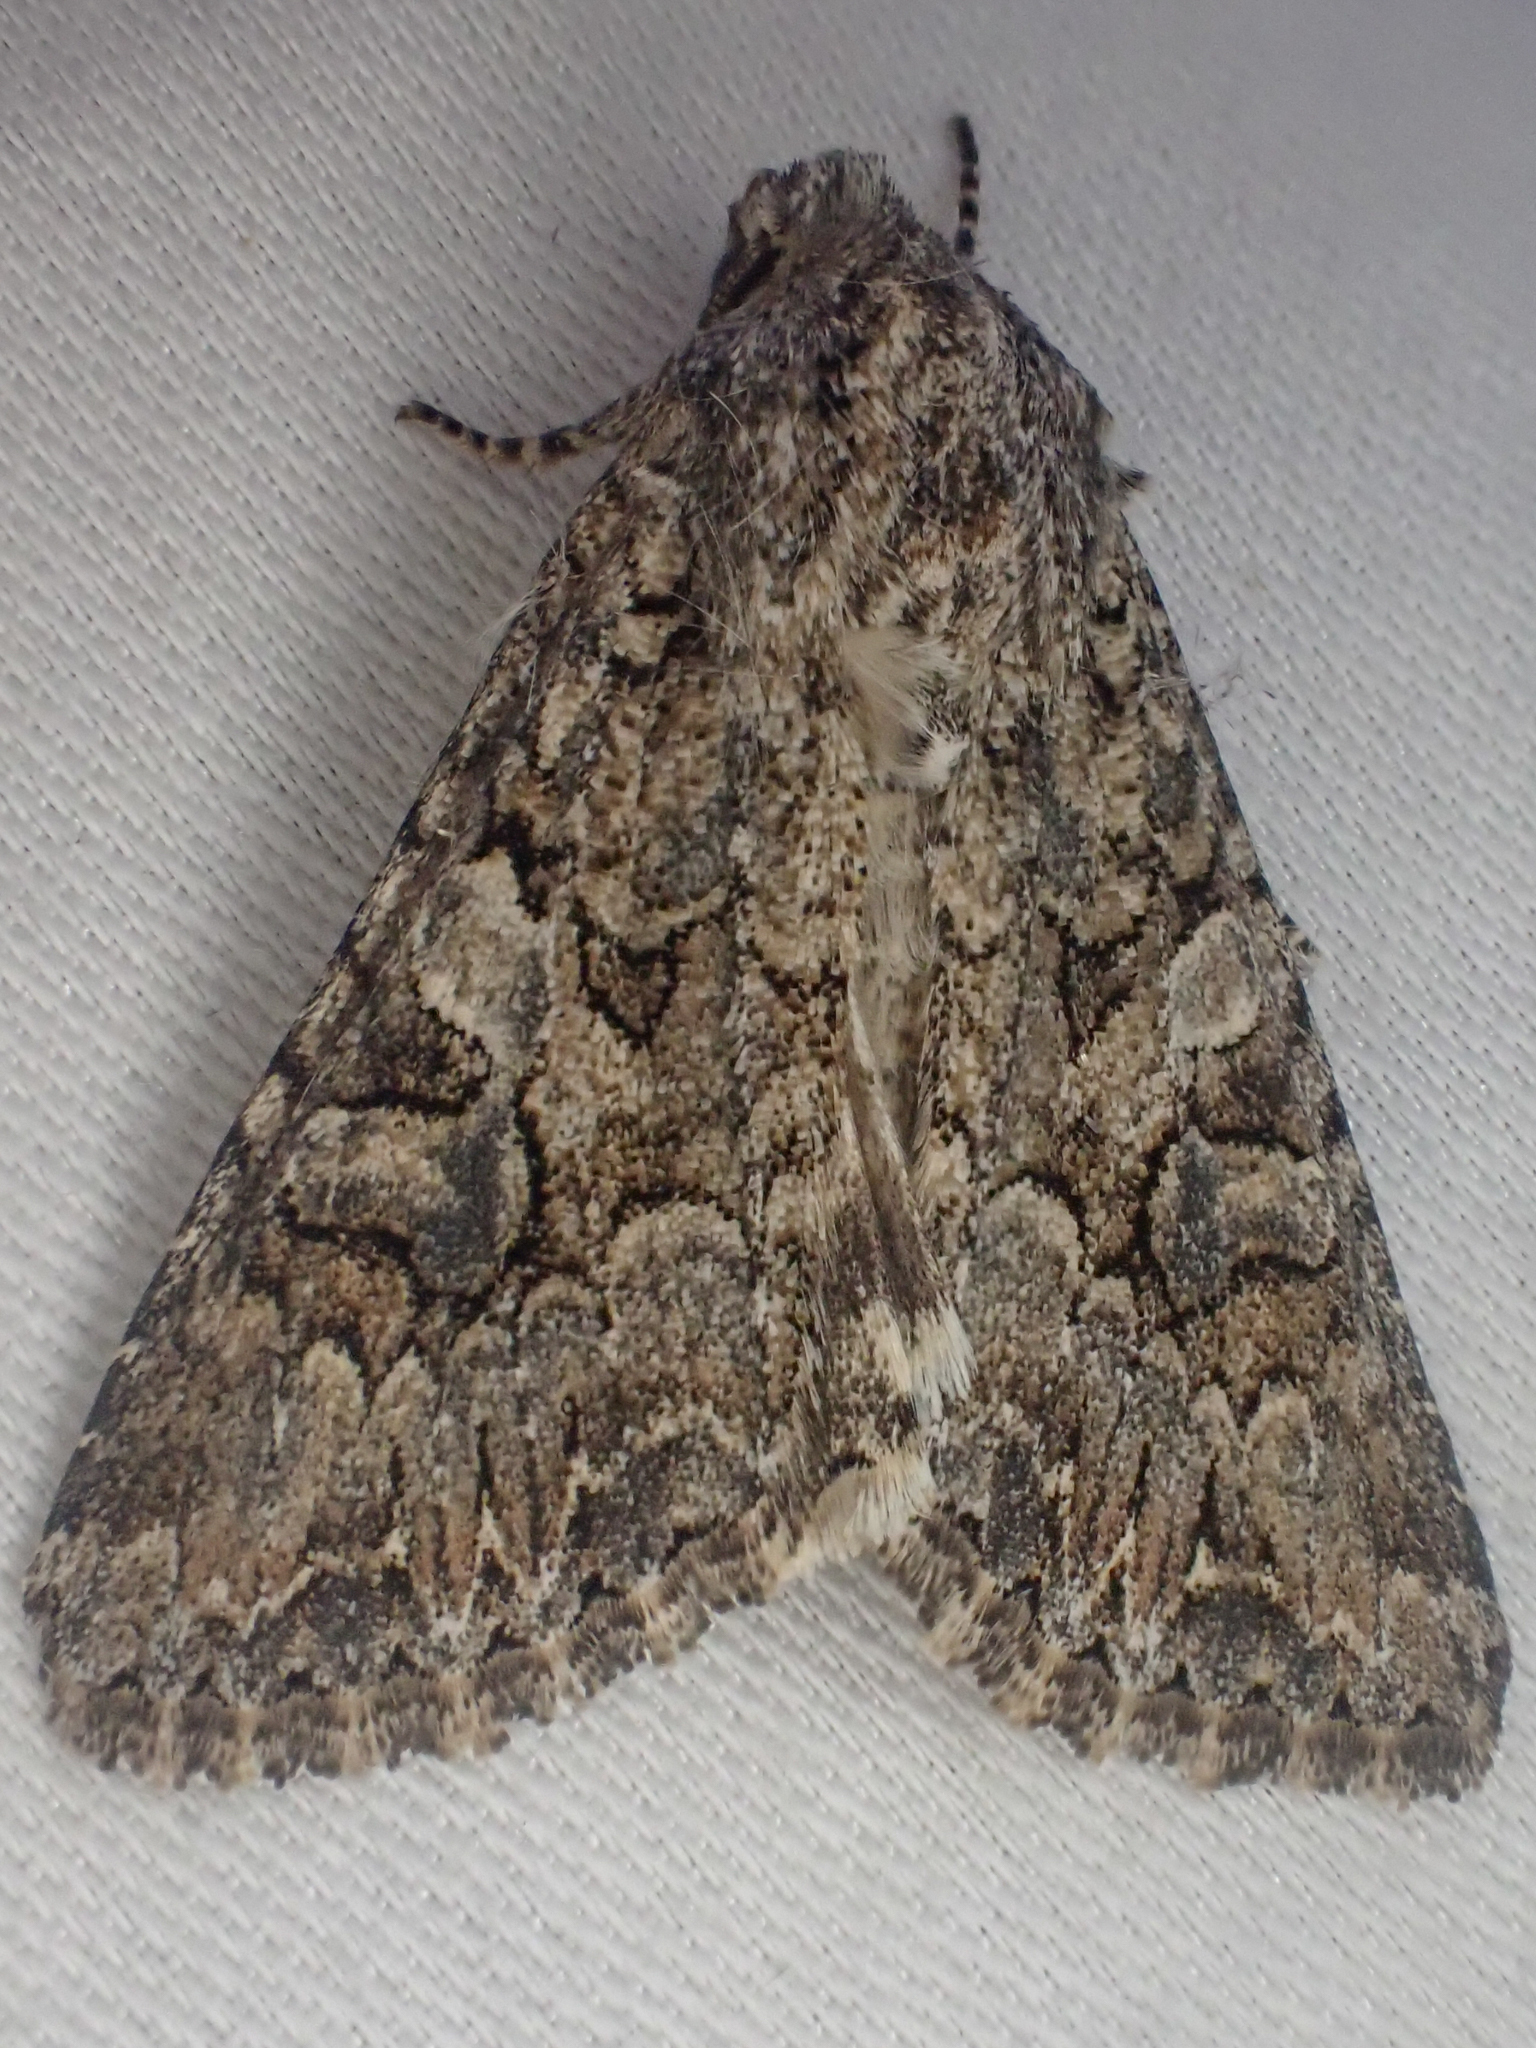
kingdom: Animalia
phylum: Arthropoda
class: Insecta
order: Lepidoptera
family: Noctuidae
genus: Anarta
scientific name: Anarta trifolii
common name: Clover cutworm moth
